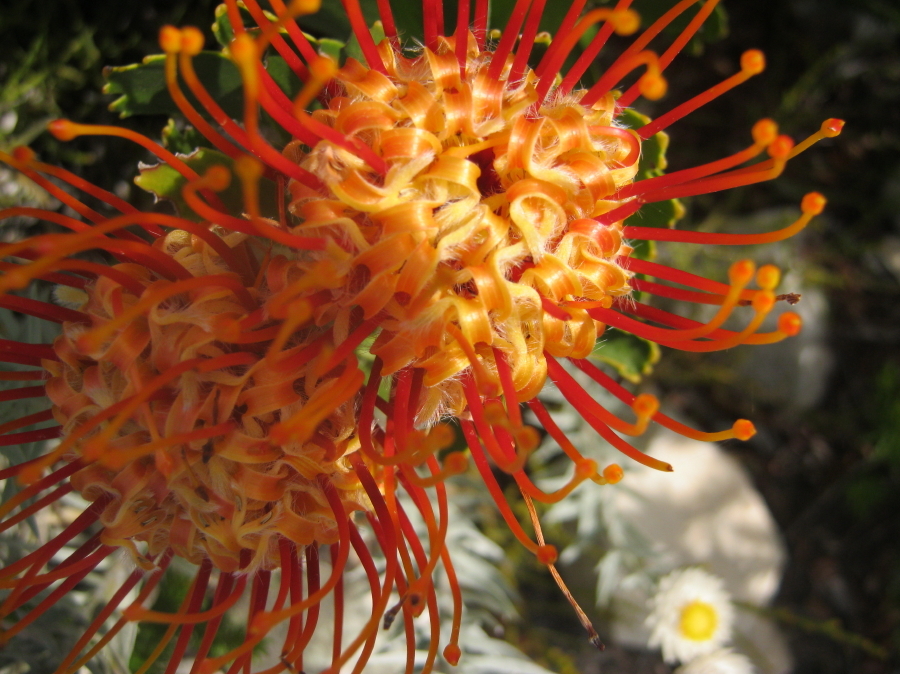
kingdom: Plantae
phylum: Tracheophyta
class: Magnoliopsida
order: Proteales
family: Proteaceae
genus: Leucospermum
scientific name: Leucospermum cuneiforme
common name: Common pincushion
